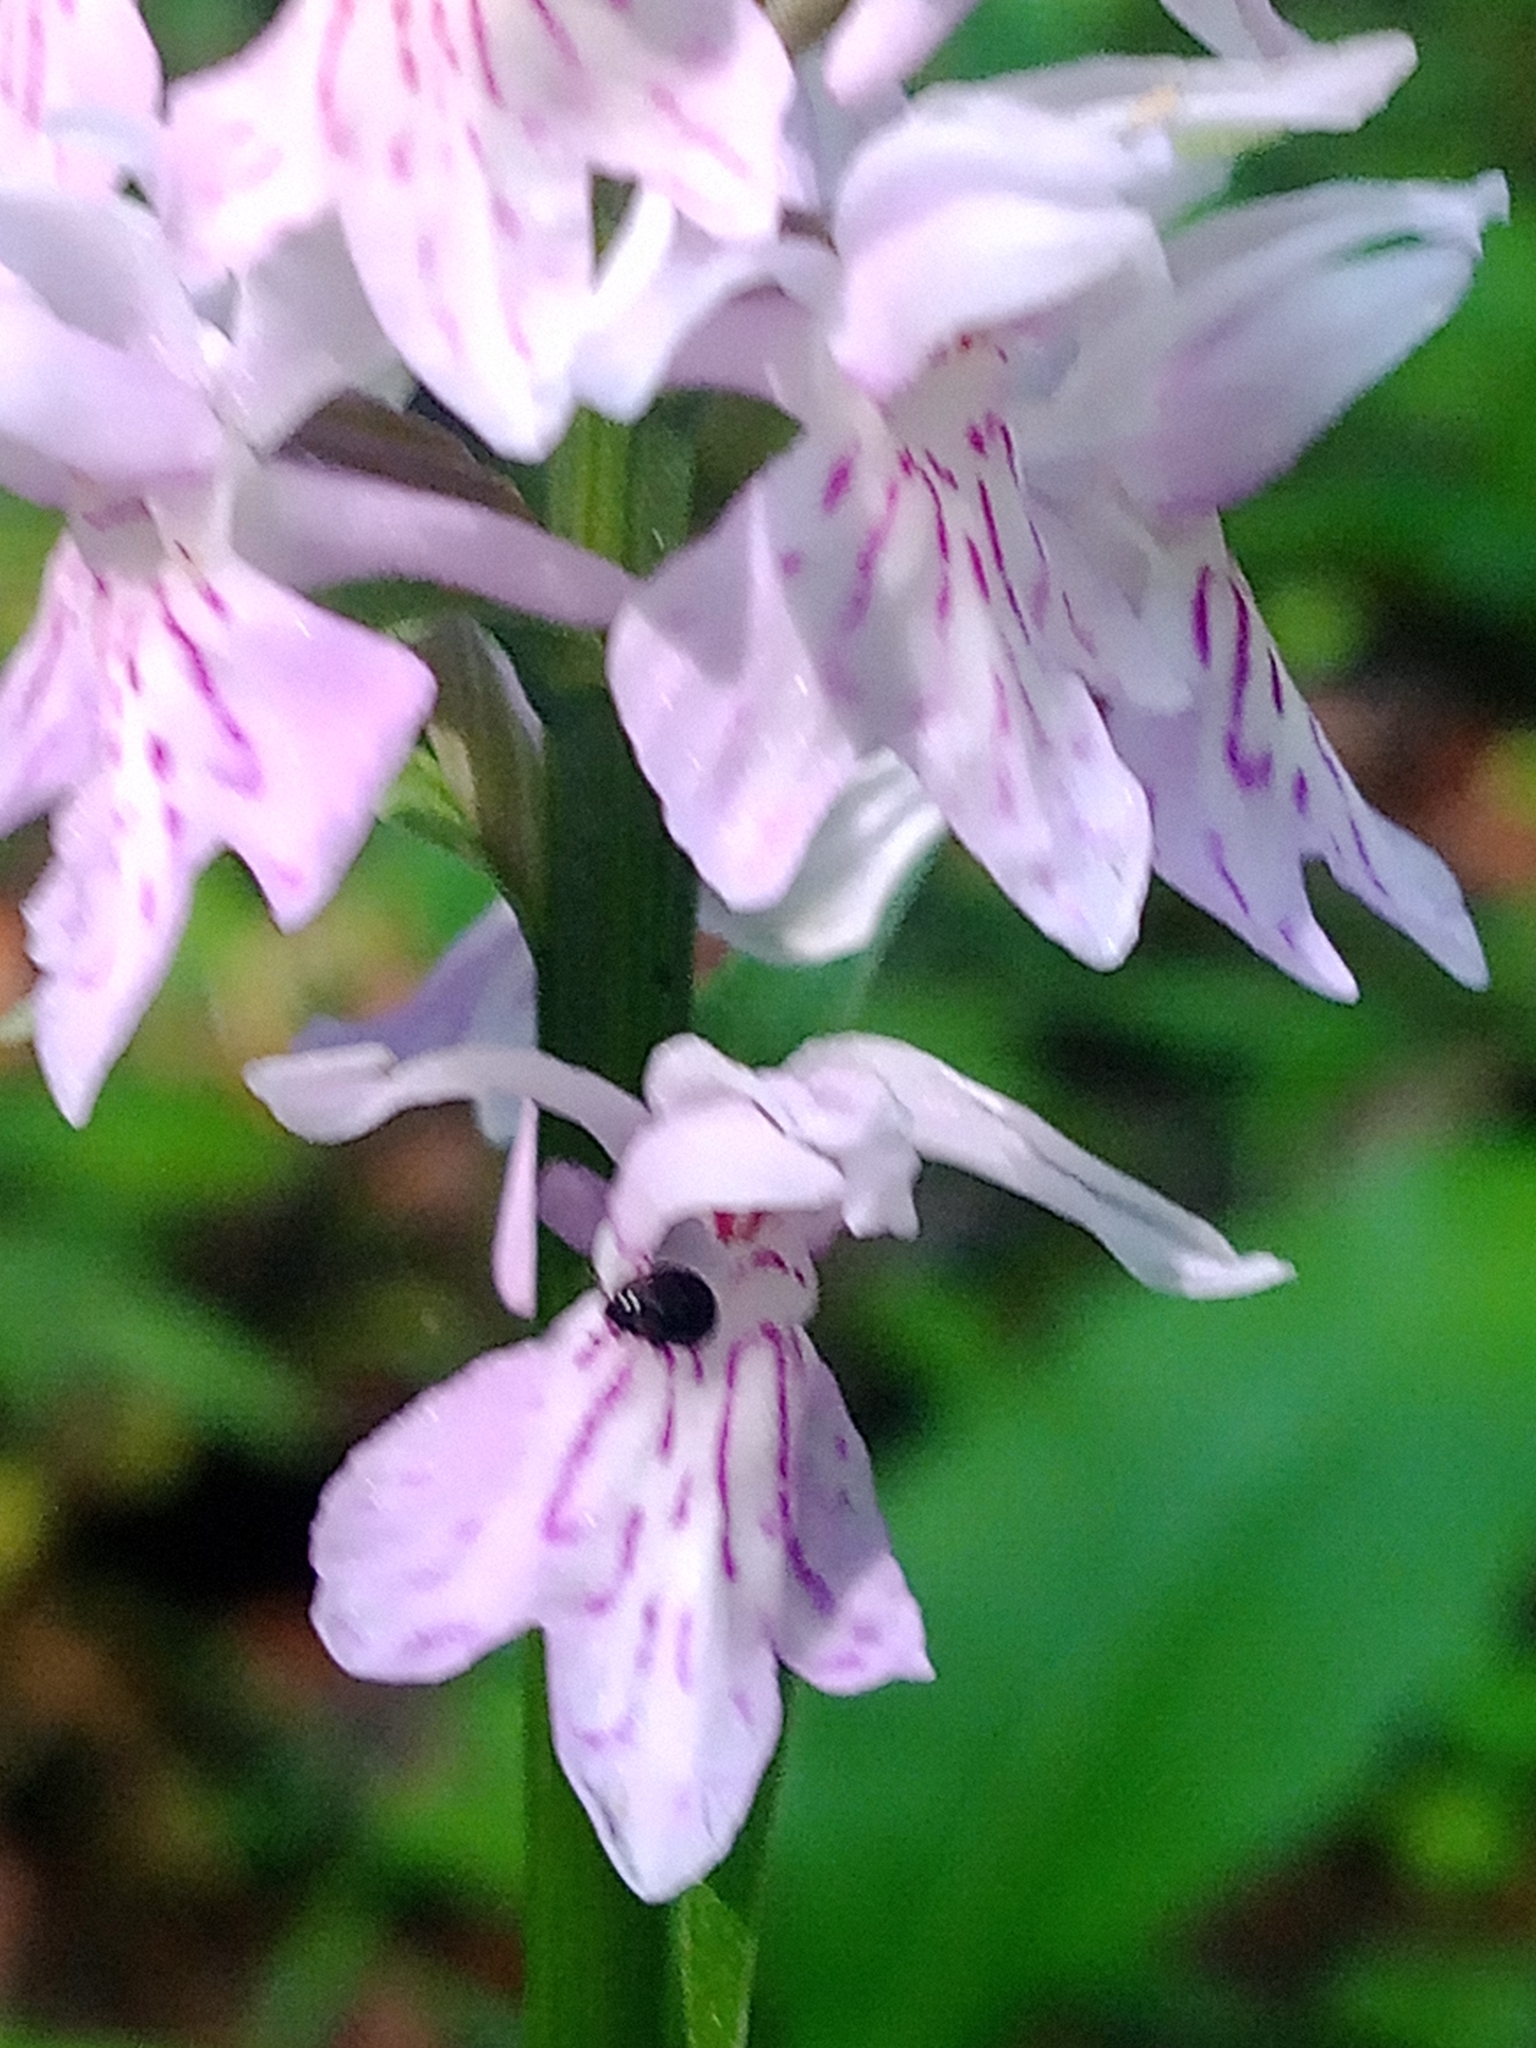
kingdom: Plantae
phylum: Tracheophyta
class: Liliopsida
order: Asparagales
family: Orchidaceae
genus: Dactylorhiza
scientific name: Dactylorhiza maculata
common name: Heath spotted-orchid
